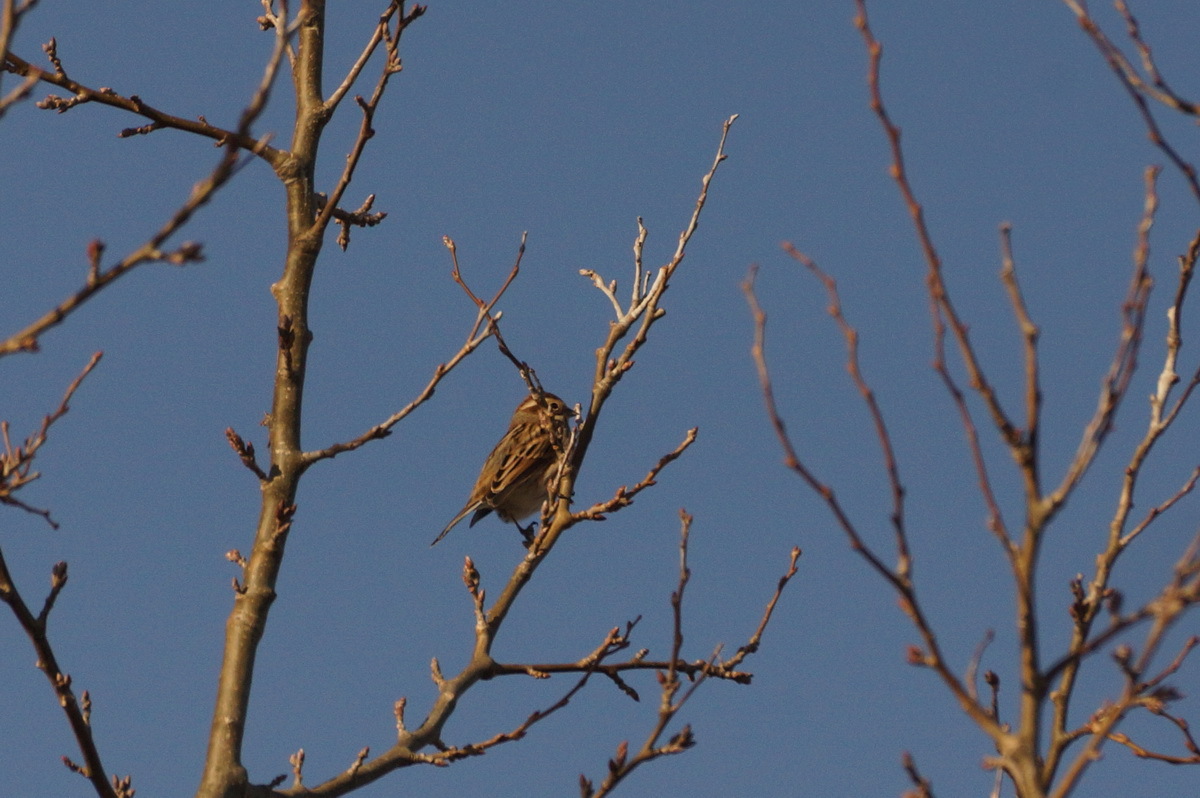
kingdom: Animalia
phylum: Chordata
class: Aves
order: Passeriformes
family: Emberizidae
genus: Emberiza
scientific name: Emberiza schoeniclus
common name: Reed bunting
